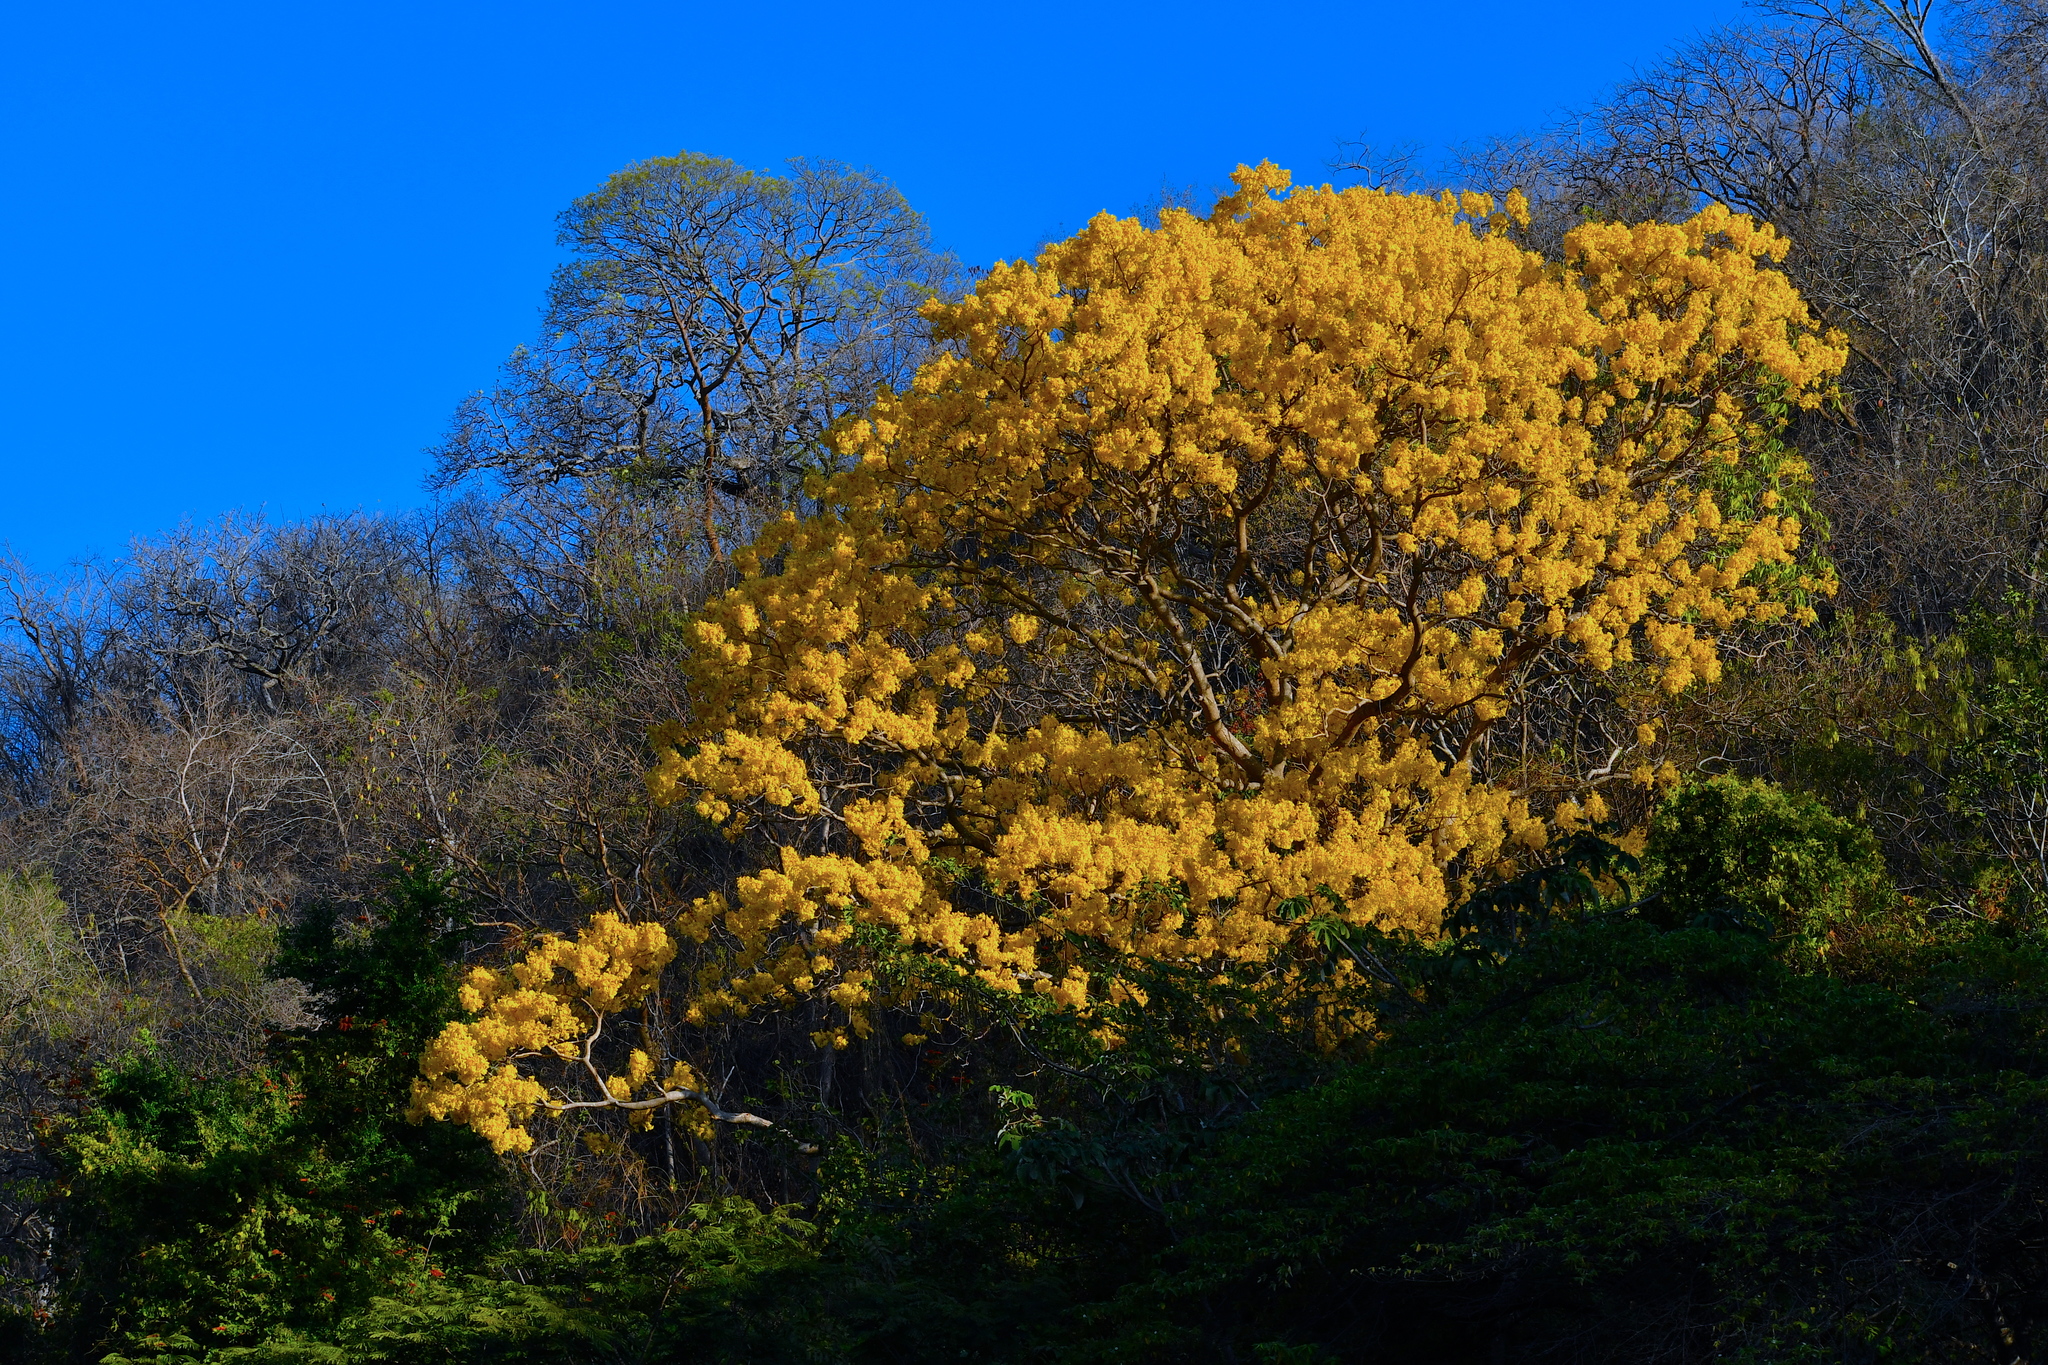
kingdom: Plantae
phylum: Tracheophyta
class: Magnoliopsida
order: Lamiales
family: Bignoniaceae
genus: Roseodendron
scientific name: Roseodendron donnell-smithii
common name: White-mahogany
